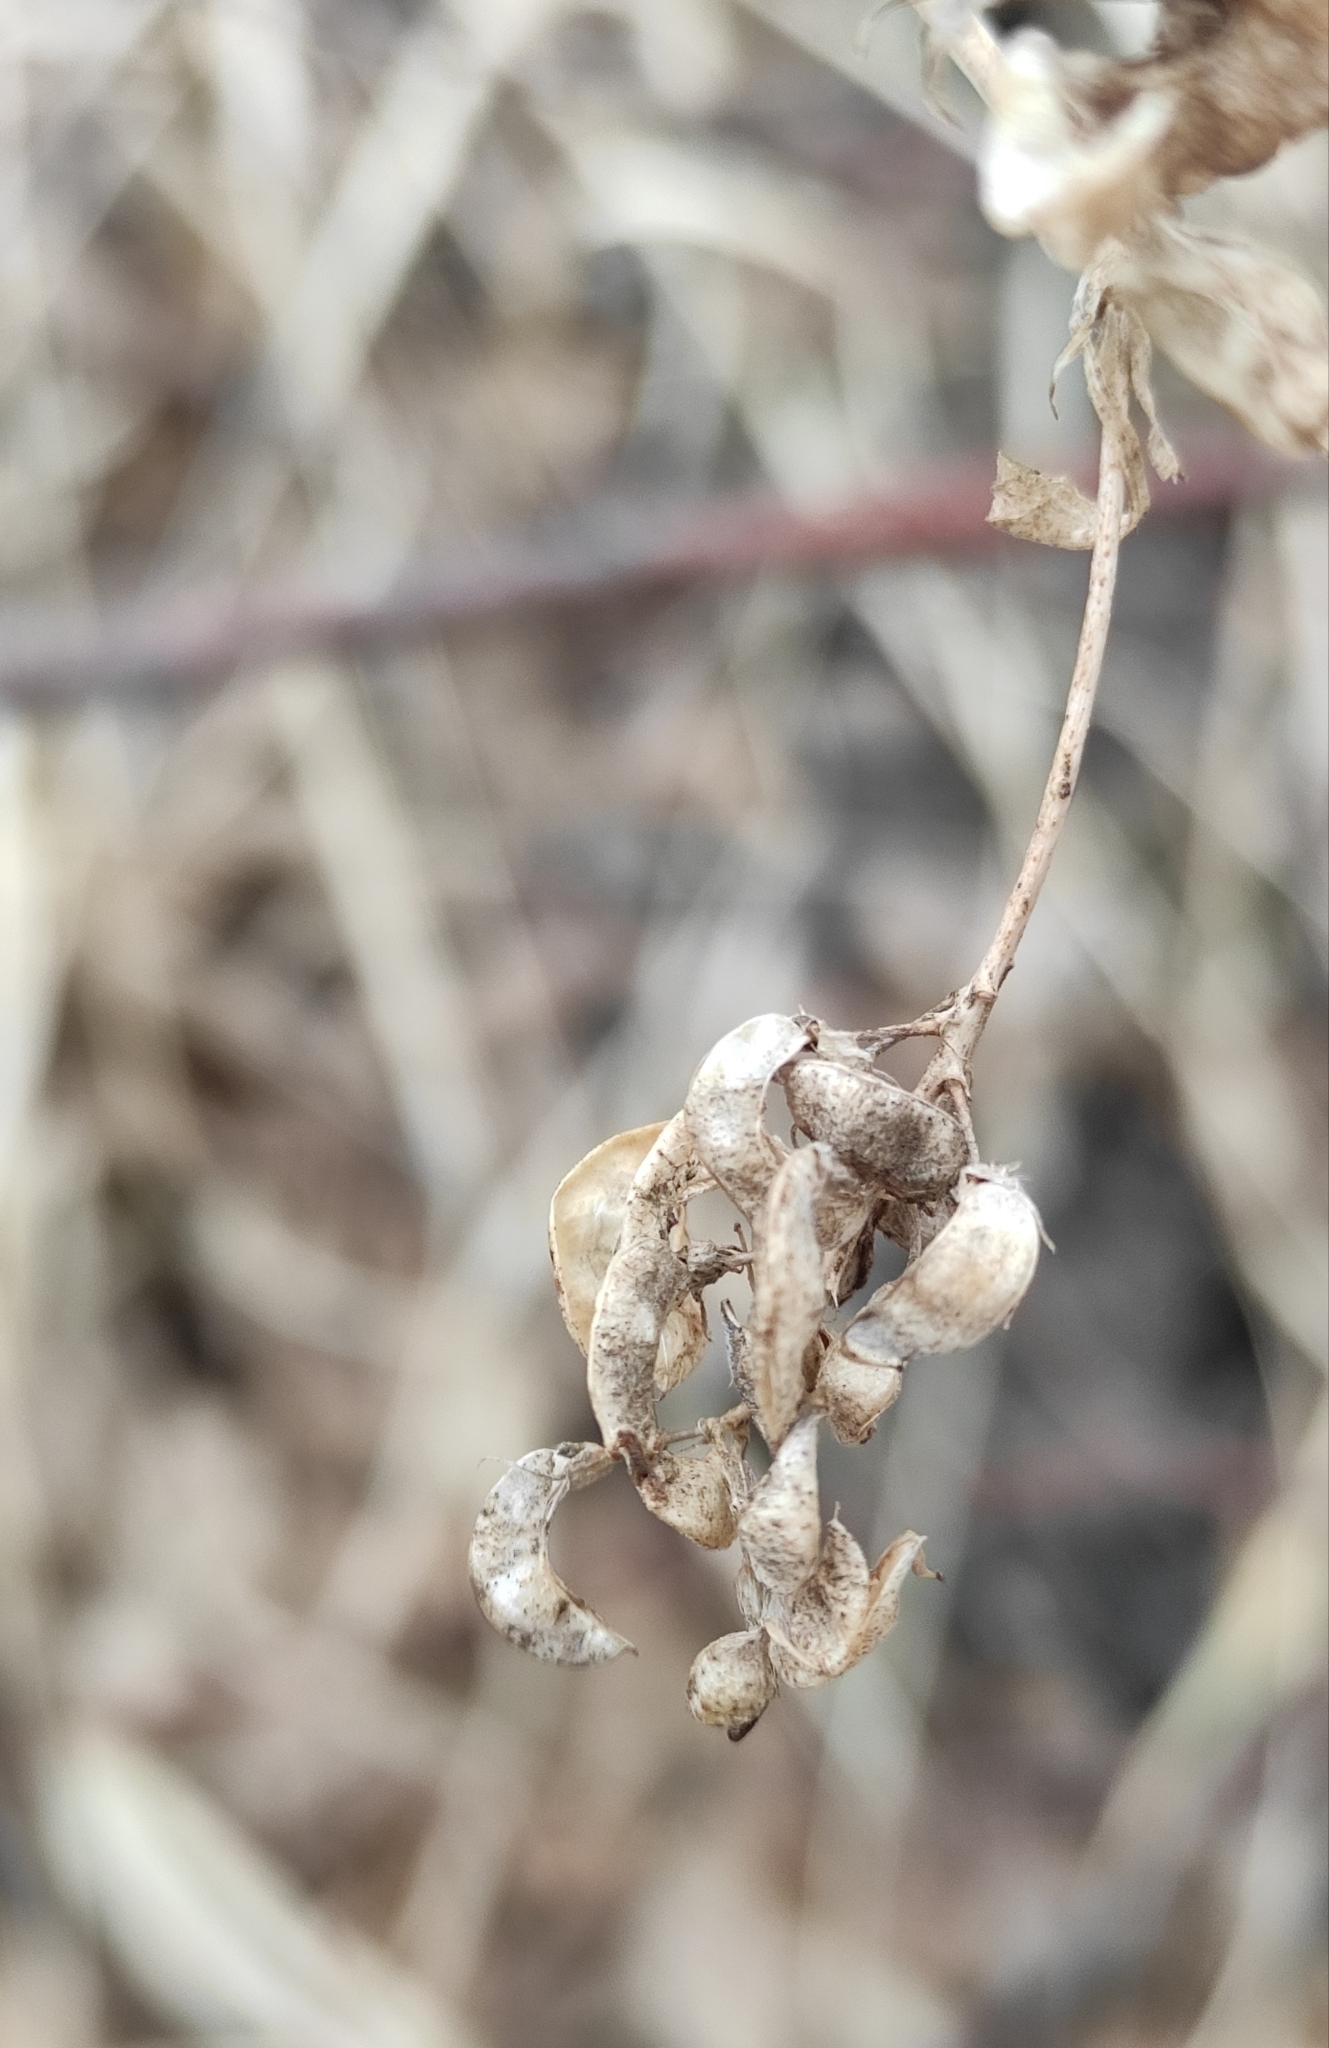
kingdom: Plantae
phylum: Tracheophyta
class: Magnoliopsida
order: Fabales
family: Fabaceae
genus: Medicago
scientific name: Medicago falcata
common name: Sickle medick
